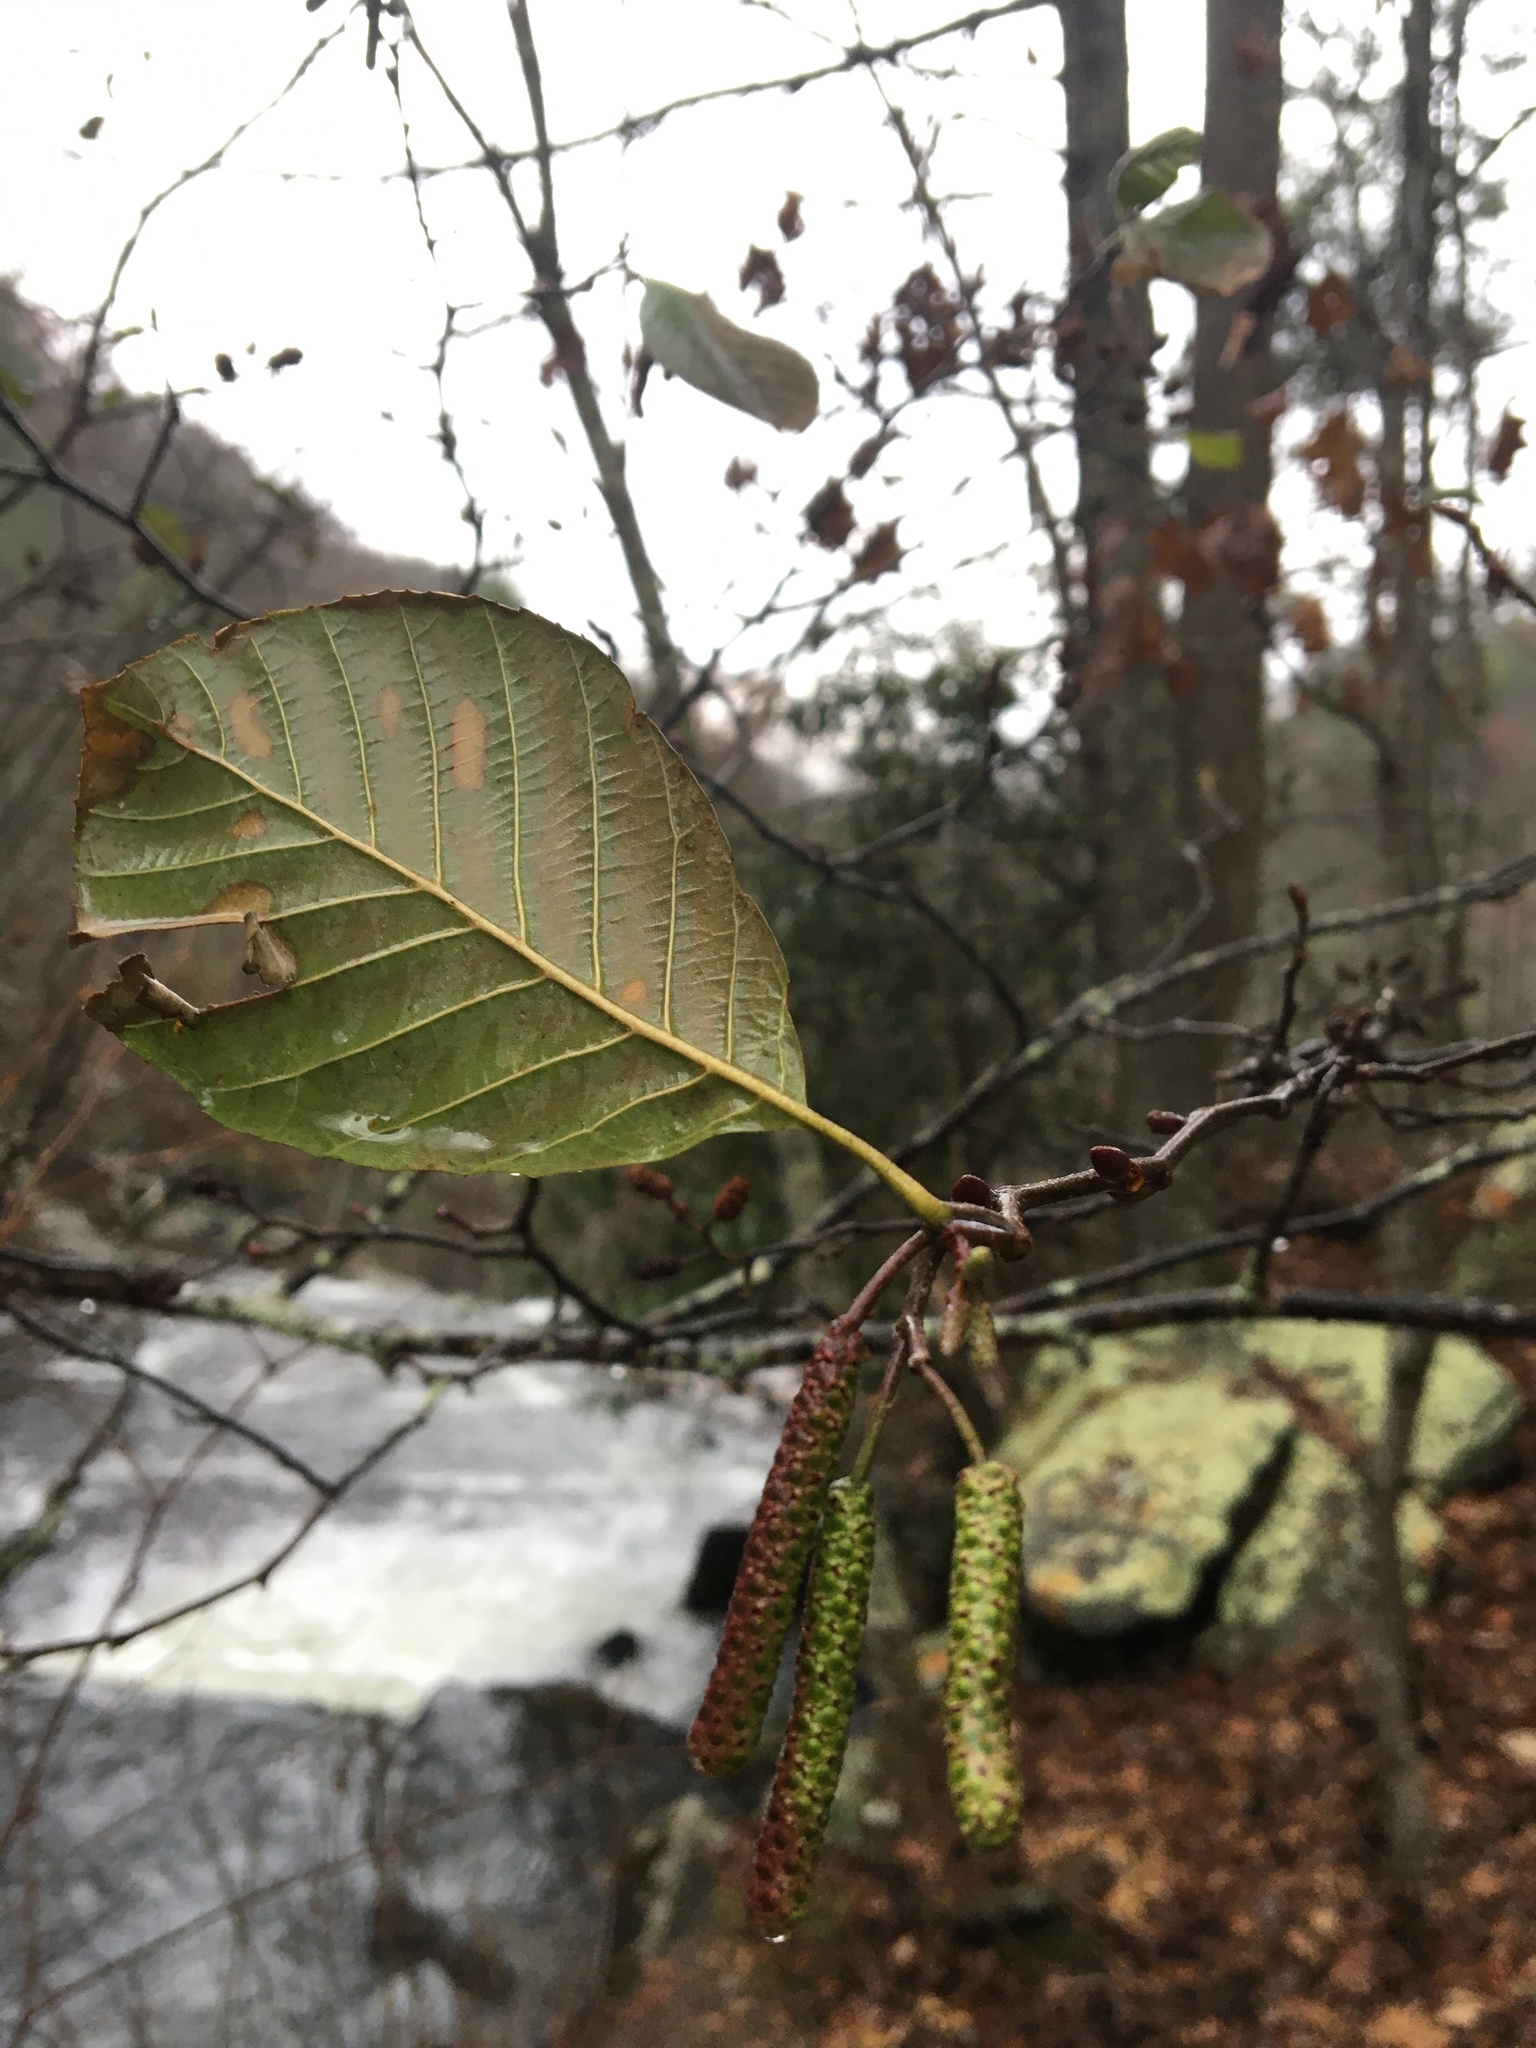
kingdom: Plantae
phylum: Tracheophyta
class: Magnoliopsida
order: Fagales
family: Betulaceae
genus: Alnus
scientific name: Alnus serrulata
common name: Hazel alder
